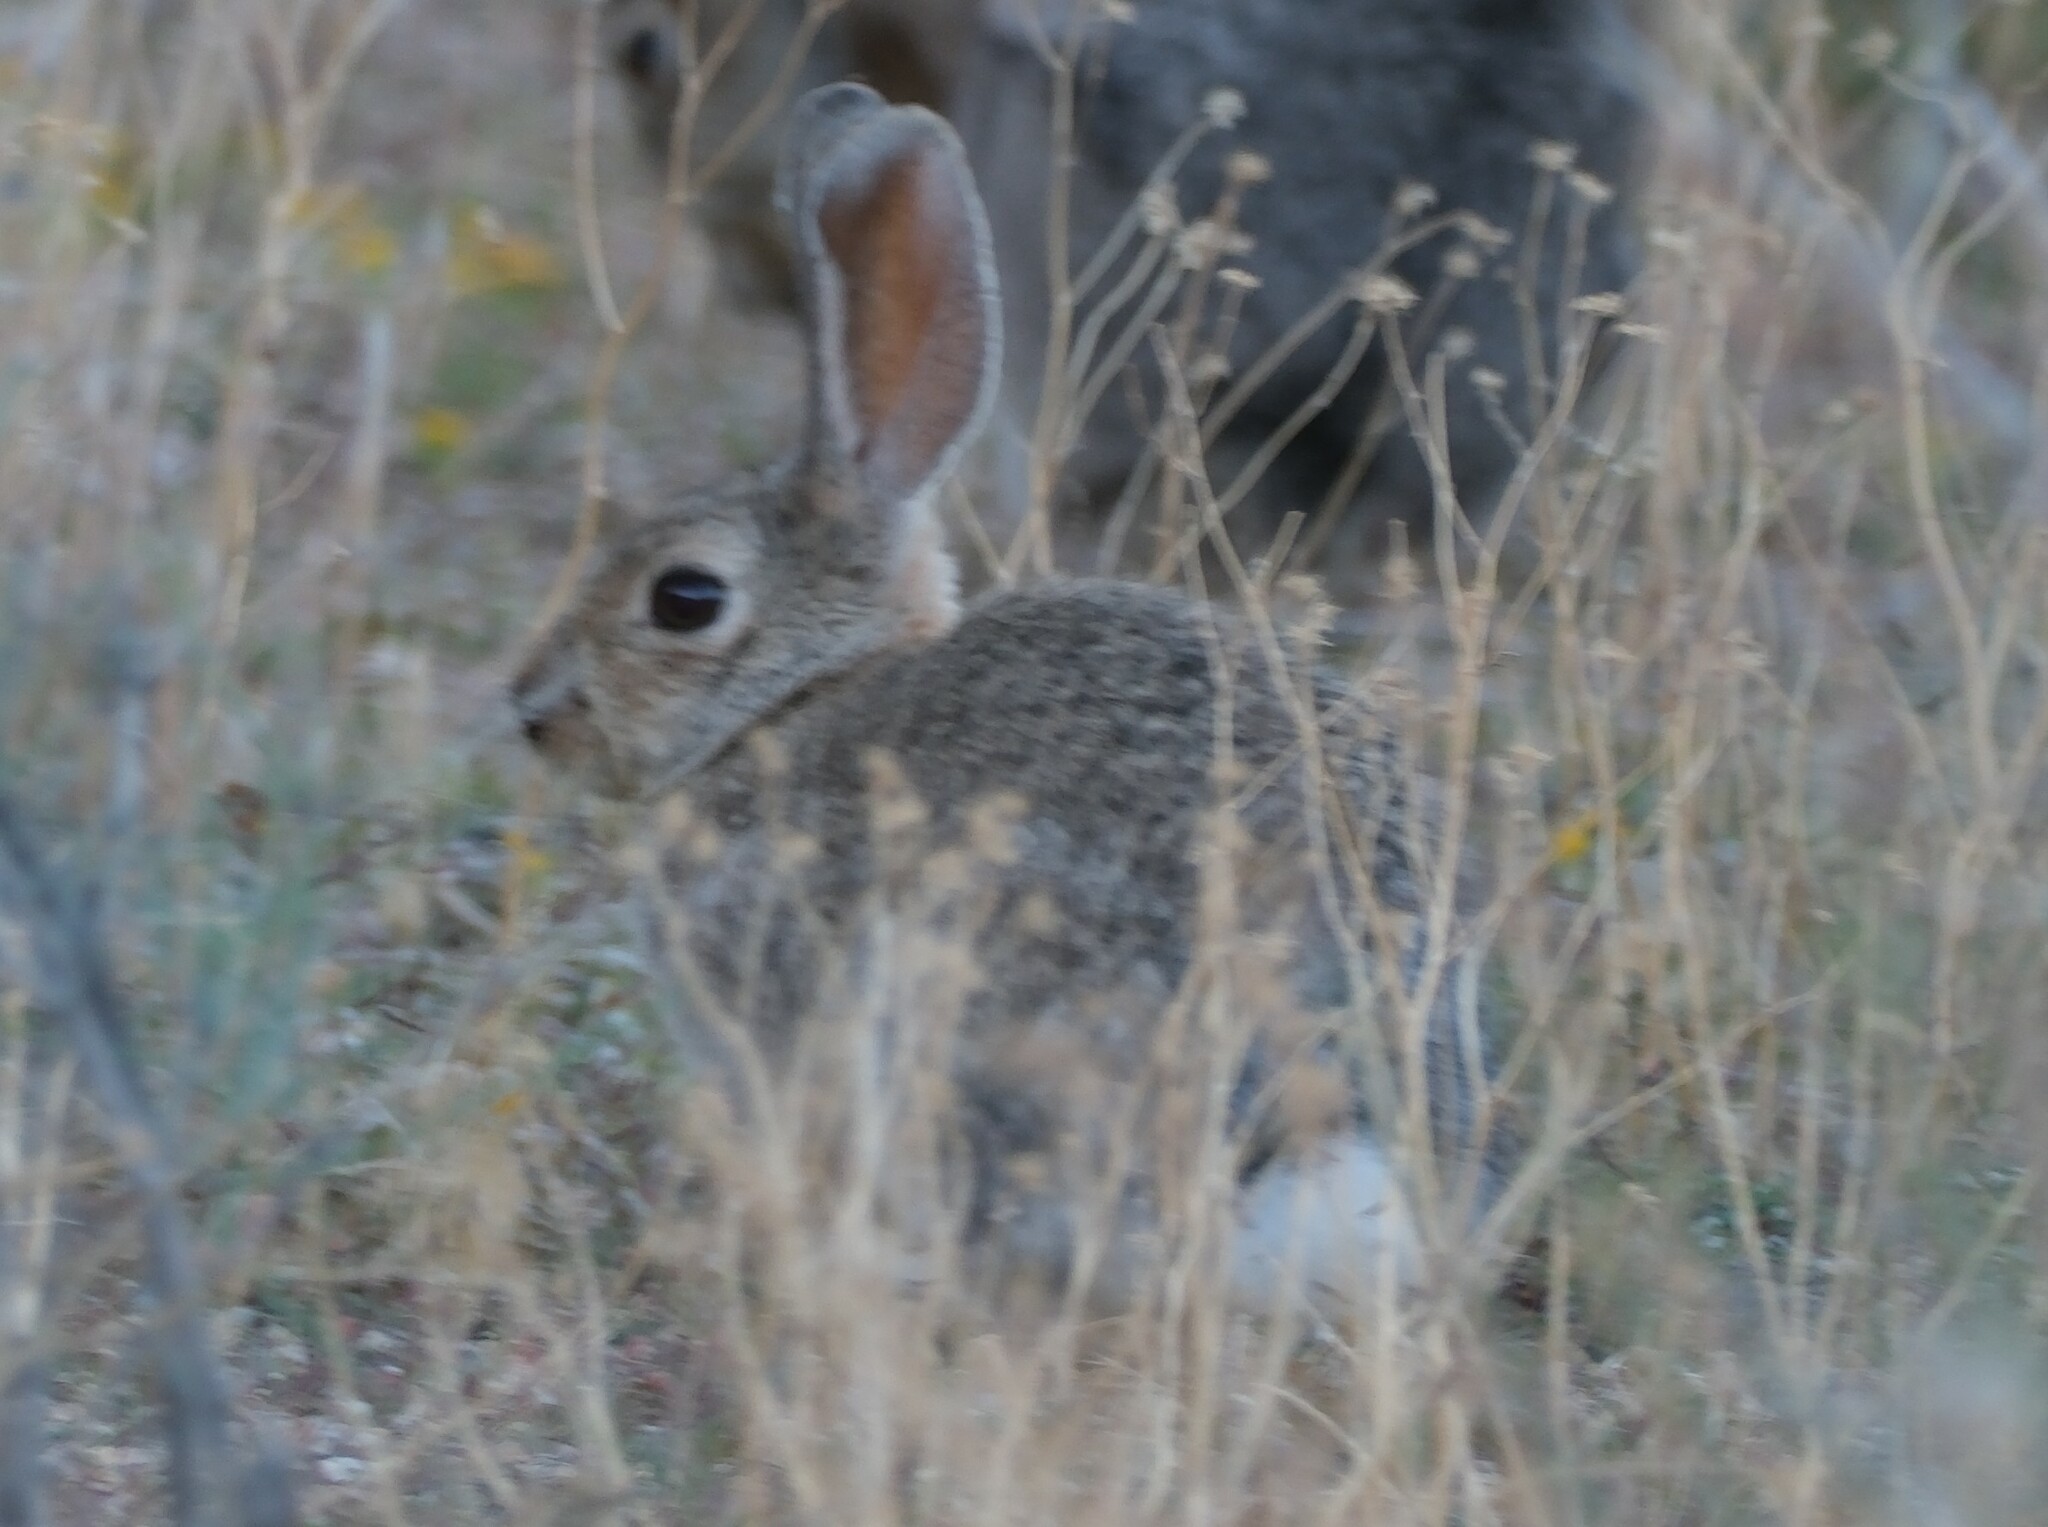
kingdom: Animalia
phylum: Chordata
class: Mammalia
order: Lagomorpha
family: Leporidae
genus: Sylvilagus
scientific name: Sylvilagus audubonii
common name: Desert cottontail
